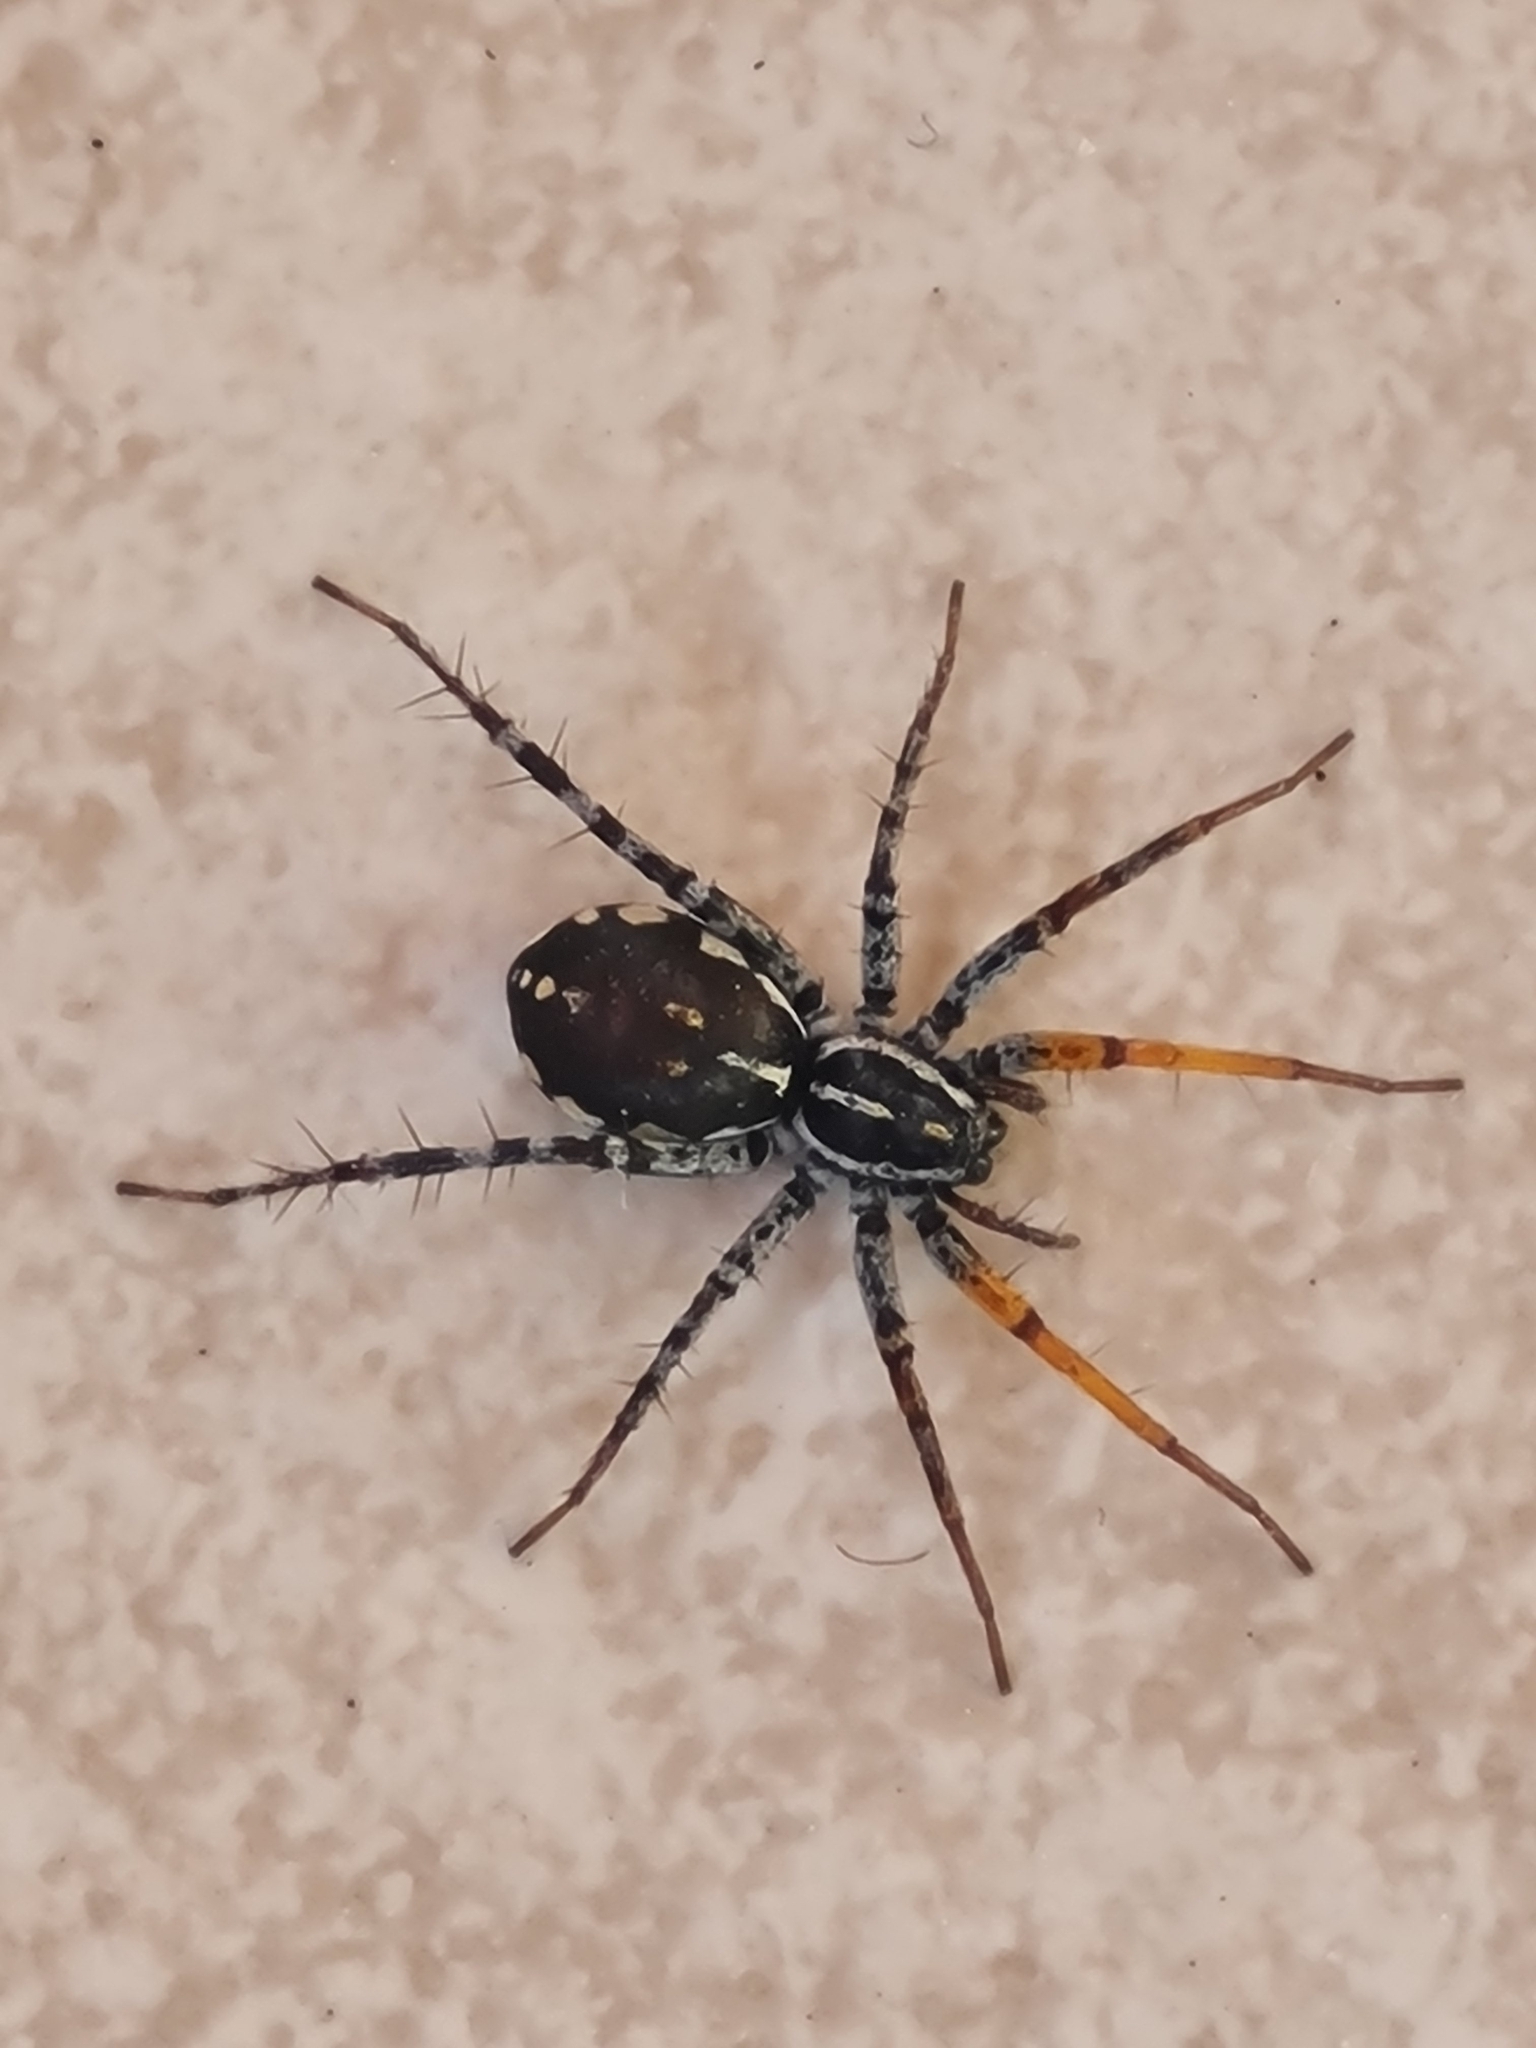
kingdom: Animalia
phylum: Arthropoda
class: Arachnida
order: Araneae
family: Corinnidae
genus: Nyssus
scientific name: Nyssus coloripes
